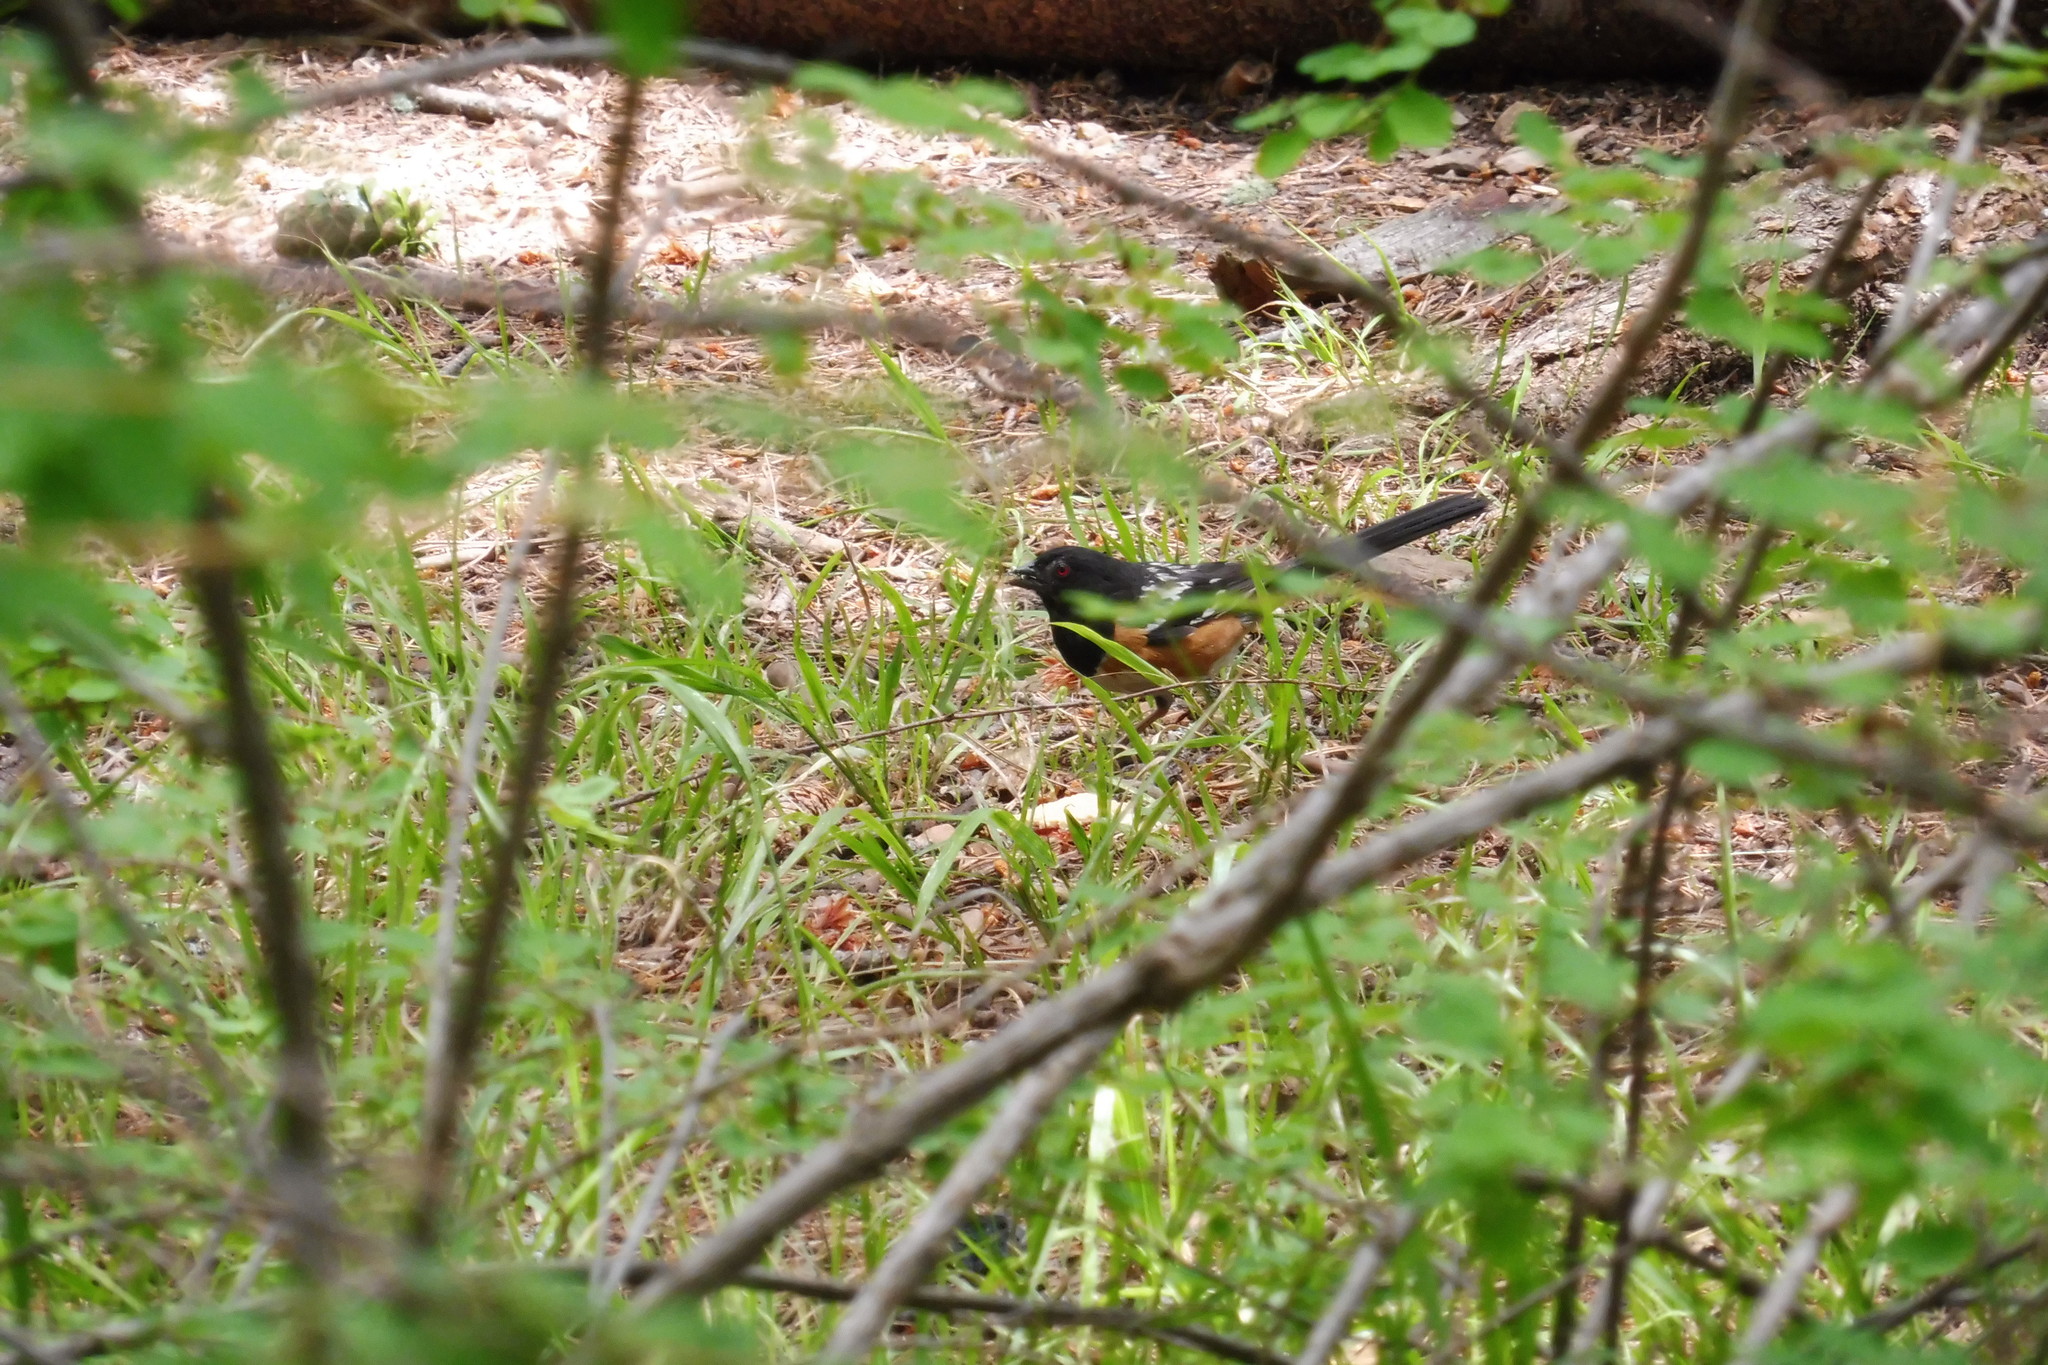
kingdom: Animalia
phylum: Chordata
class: Aves
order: Passeriformes
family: Passerellidae
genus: Pipilo
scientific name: Pipilo maculatus
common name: Spotted towhee
